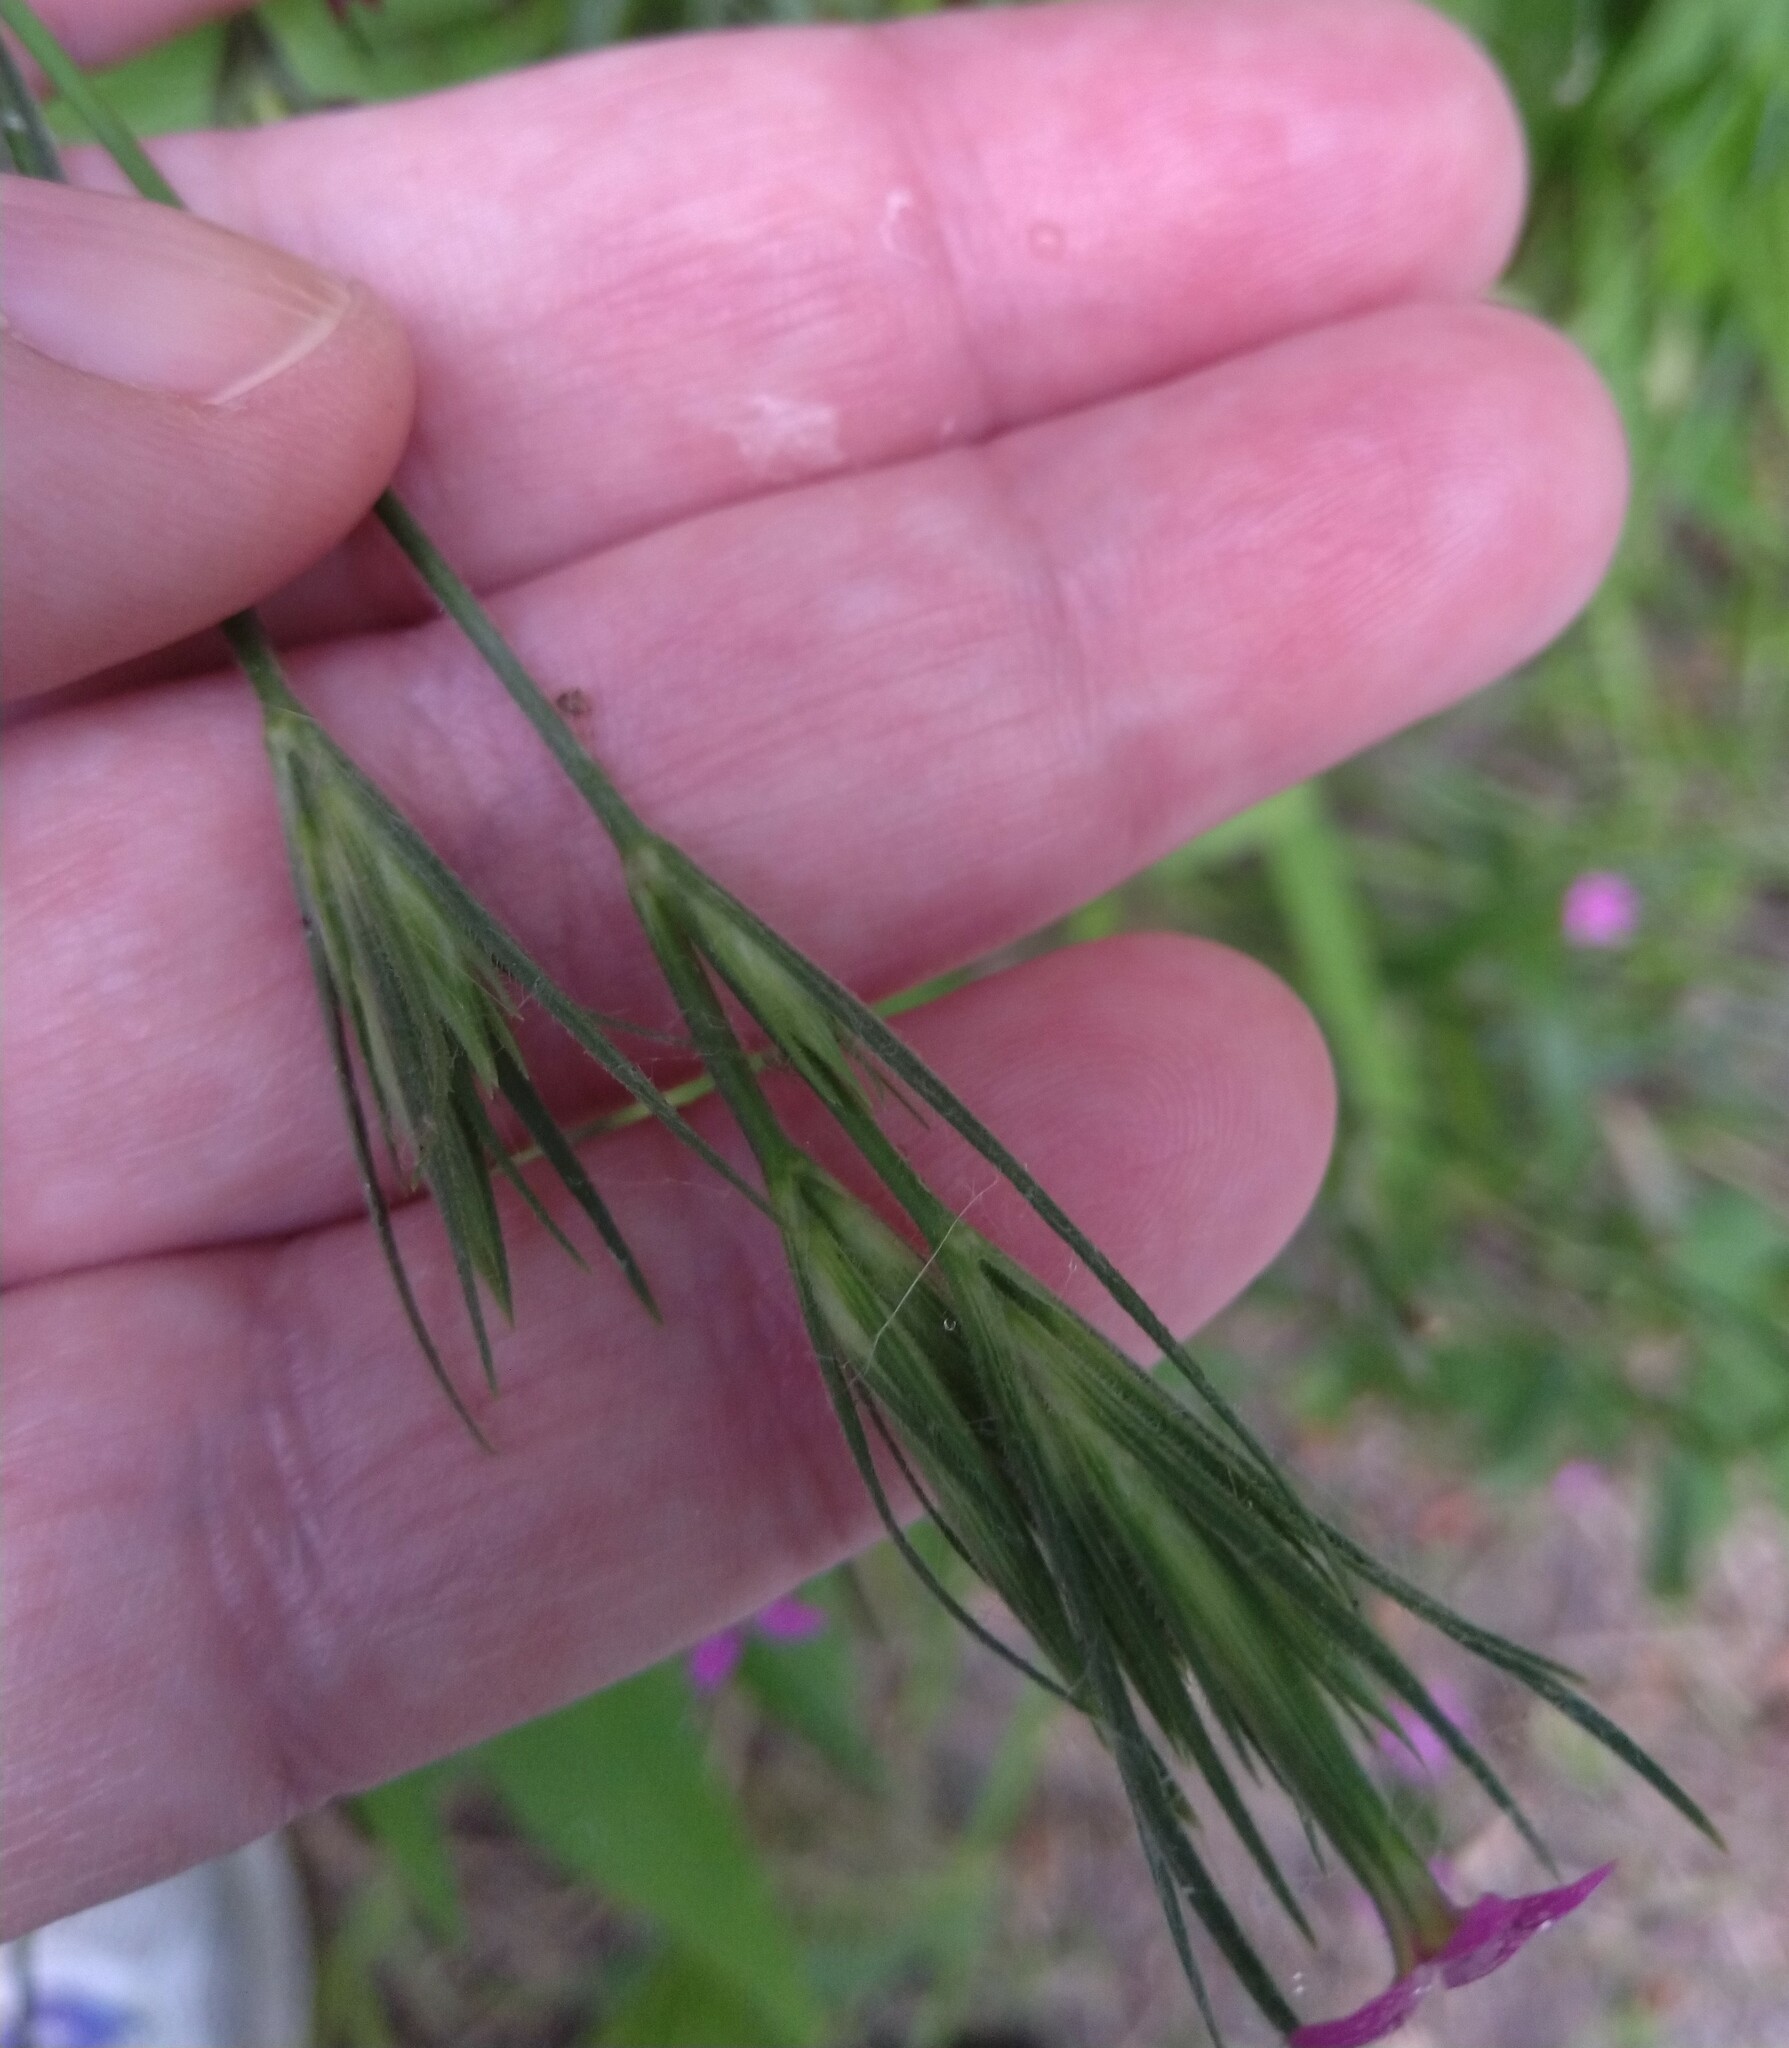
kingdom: Plantae
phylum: Tracheophyta
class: Magnoliopsida
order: Caryophyllales
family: Caryophyllaceae
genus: Dianthus
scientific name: Dianthus armeria
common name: Deptford pink
